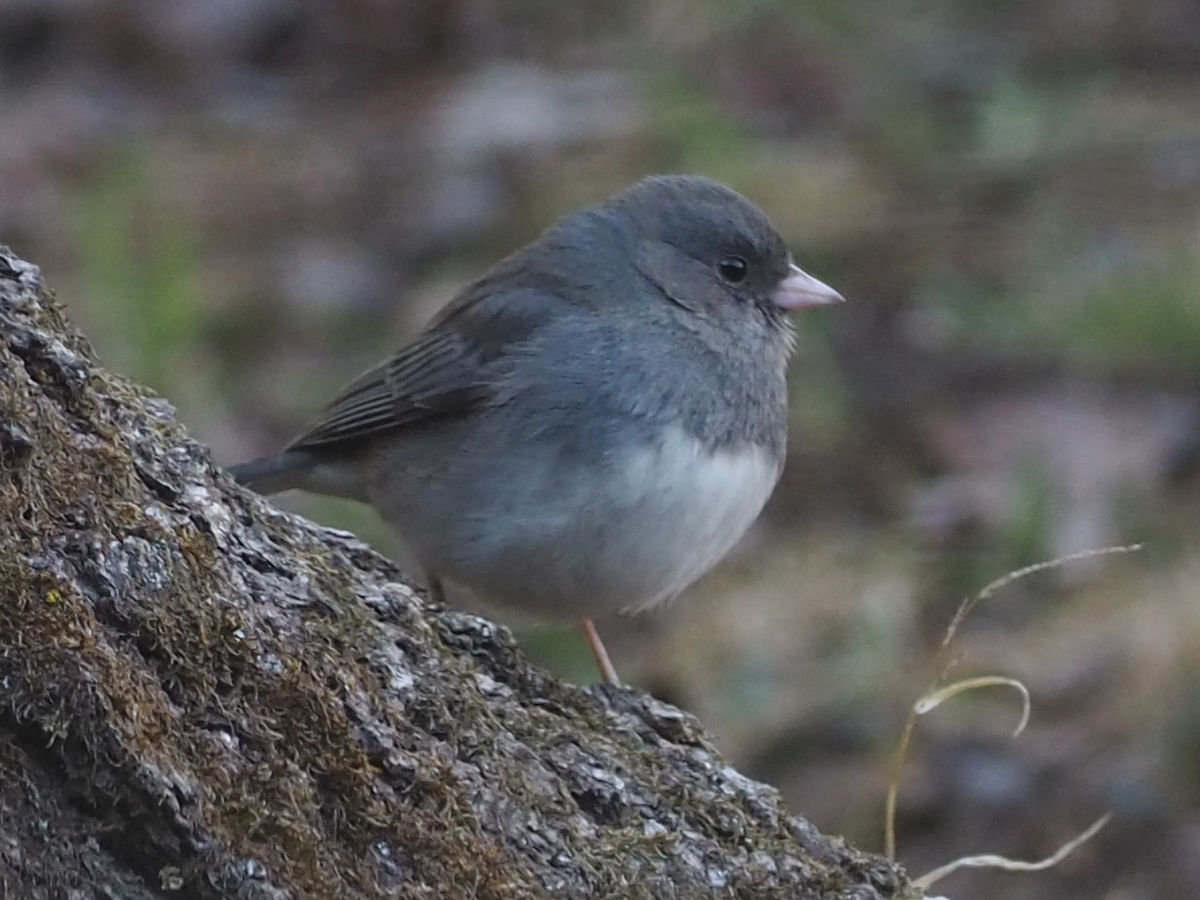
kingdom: Animalia
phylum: Chordata
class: Aves
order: Passeriformes
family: Passerellidae
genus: Junco
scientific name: Junco hyemalis
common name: Dark-eyed junco
